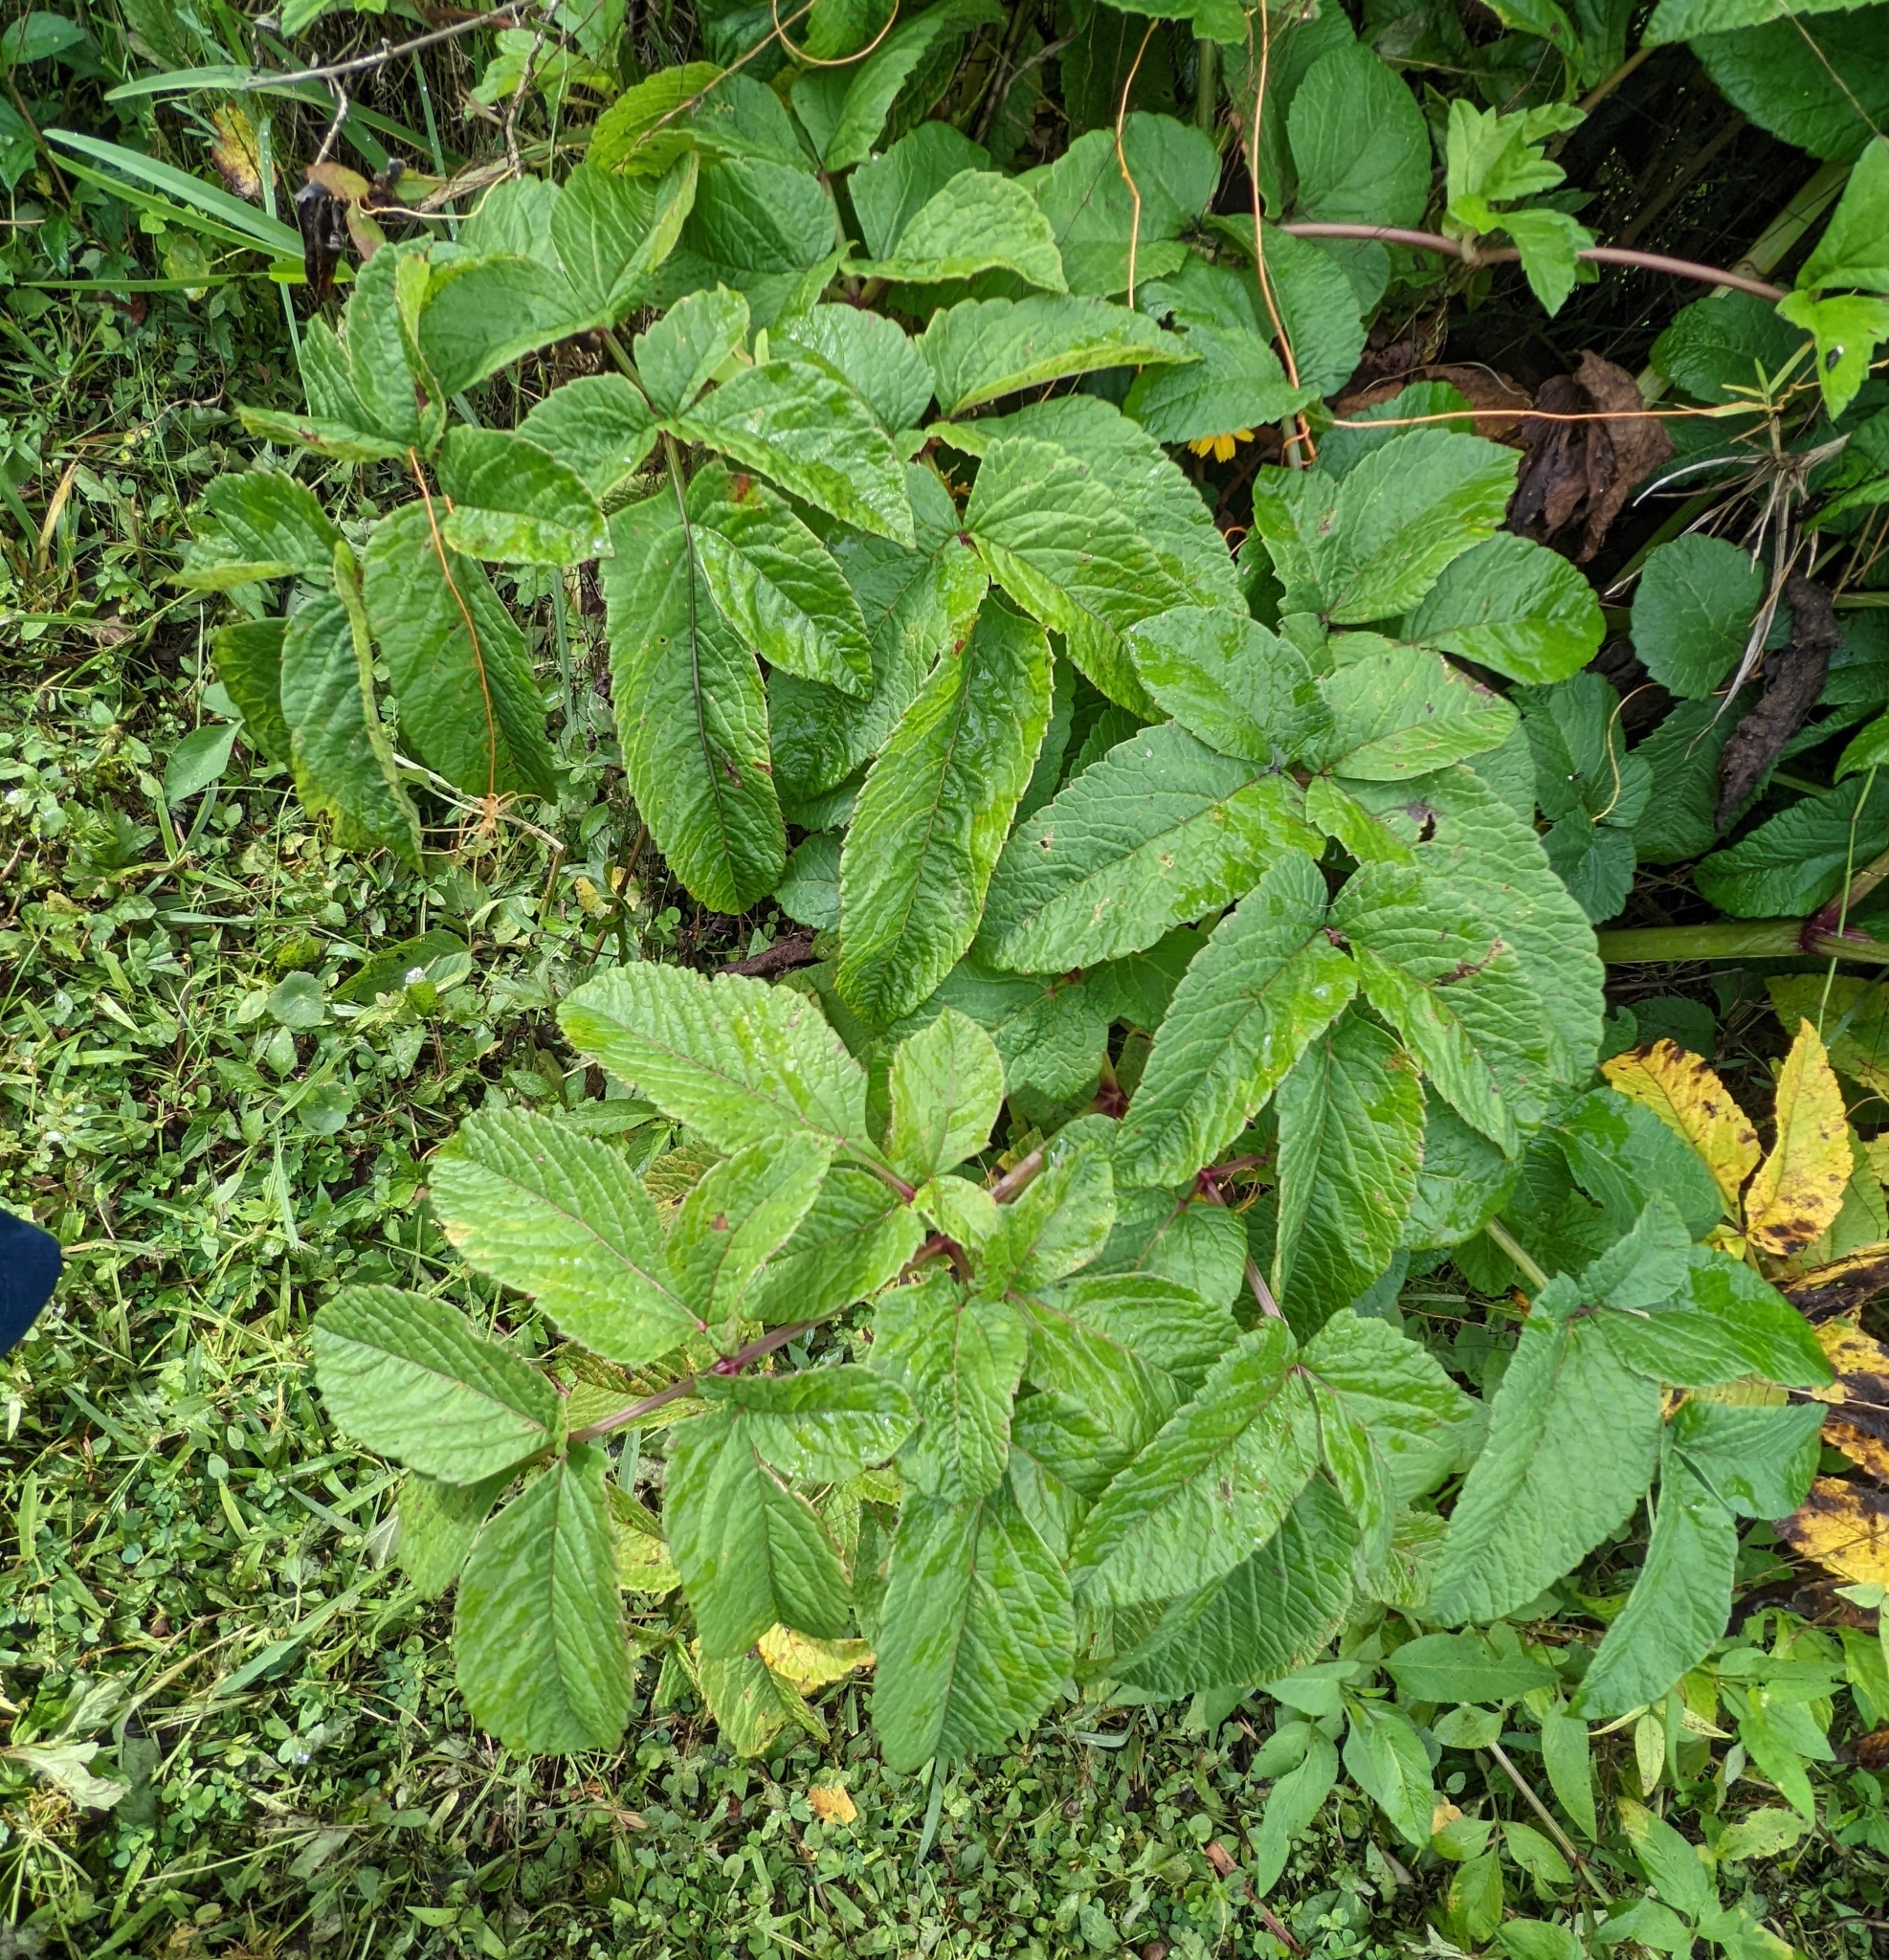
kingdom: Plantae
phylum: Tracheophyta
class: Magnoliopsida
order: Apiales
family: Apiaceae
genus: Cicuta
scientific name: Cicuta maculata
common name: Spotted cowbane
